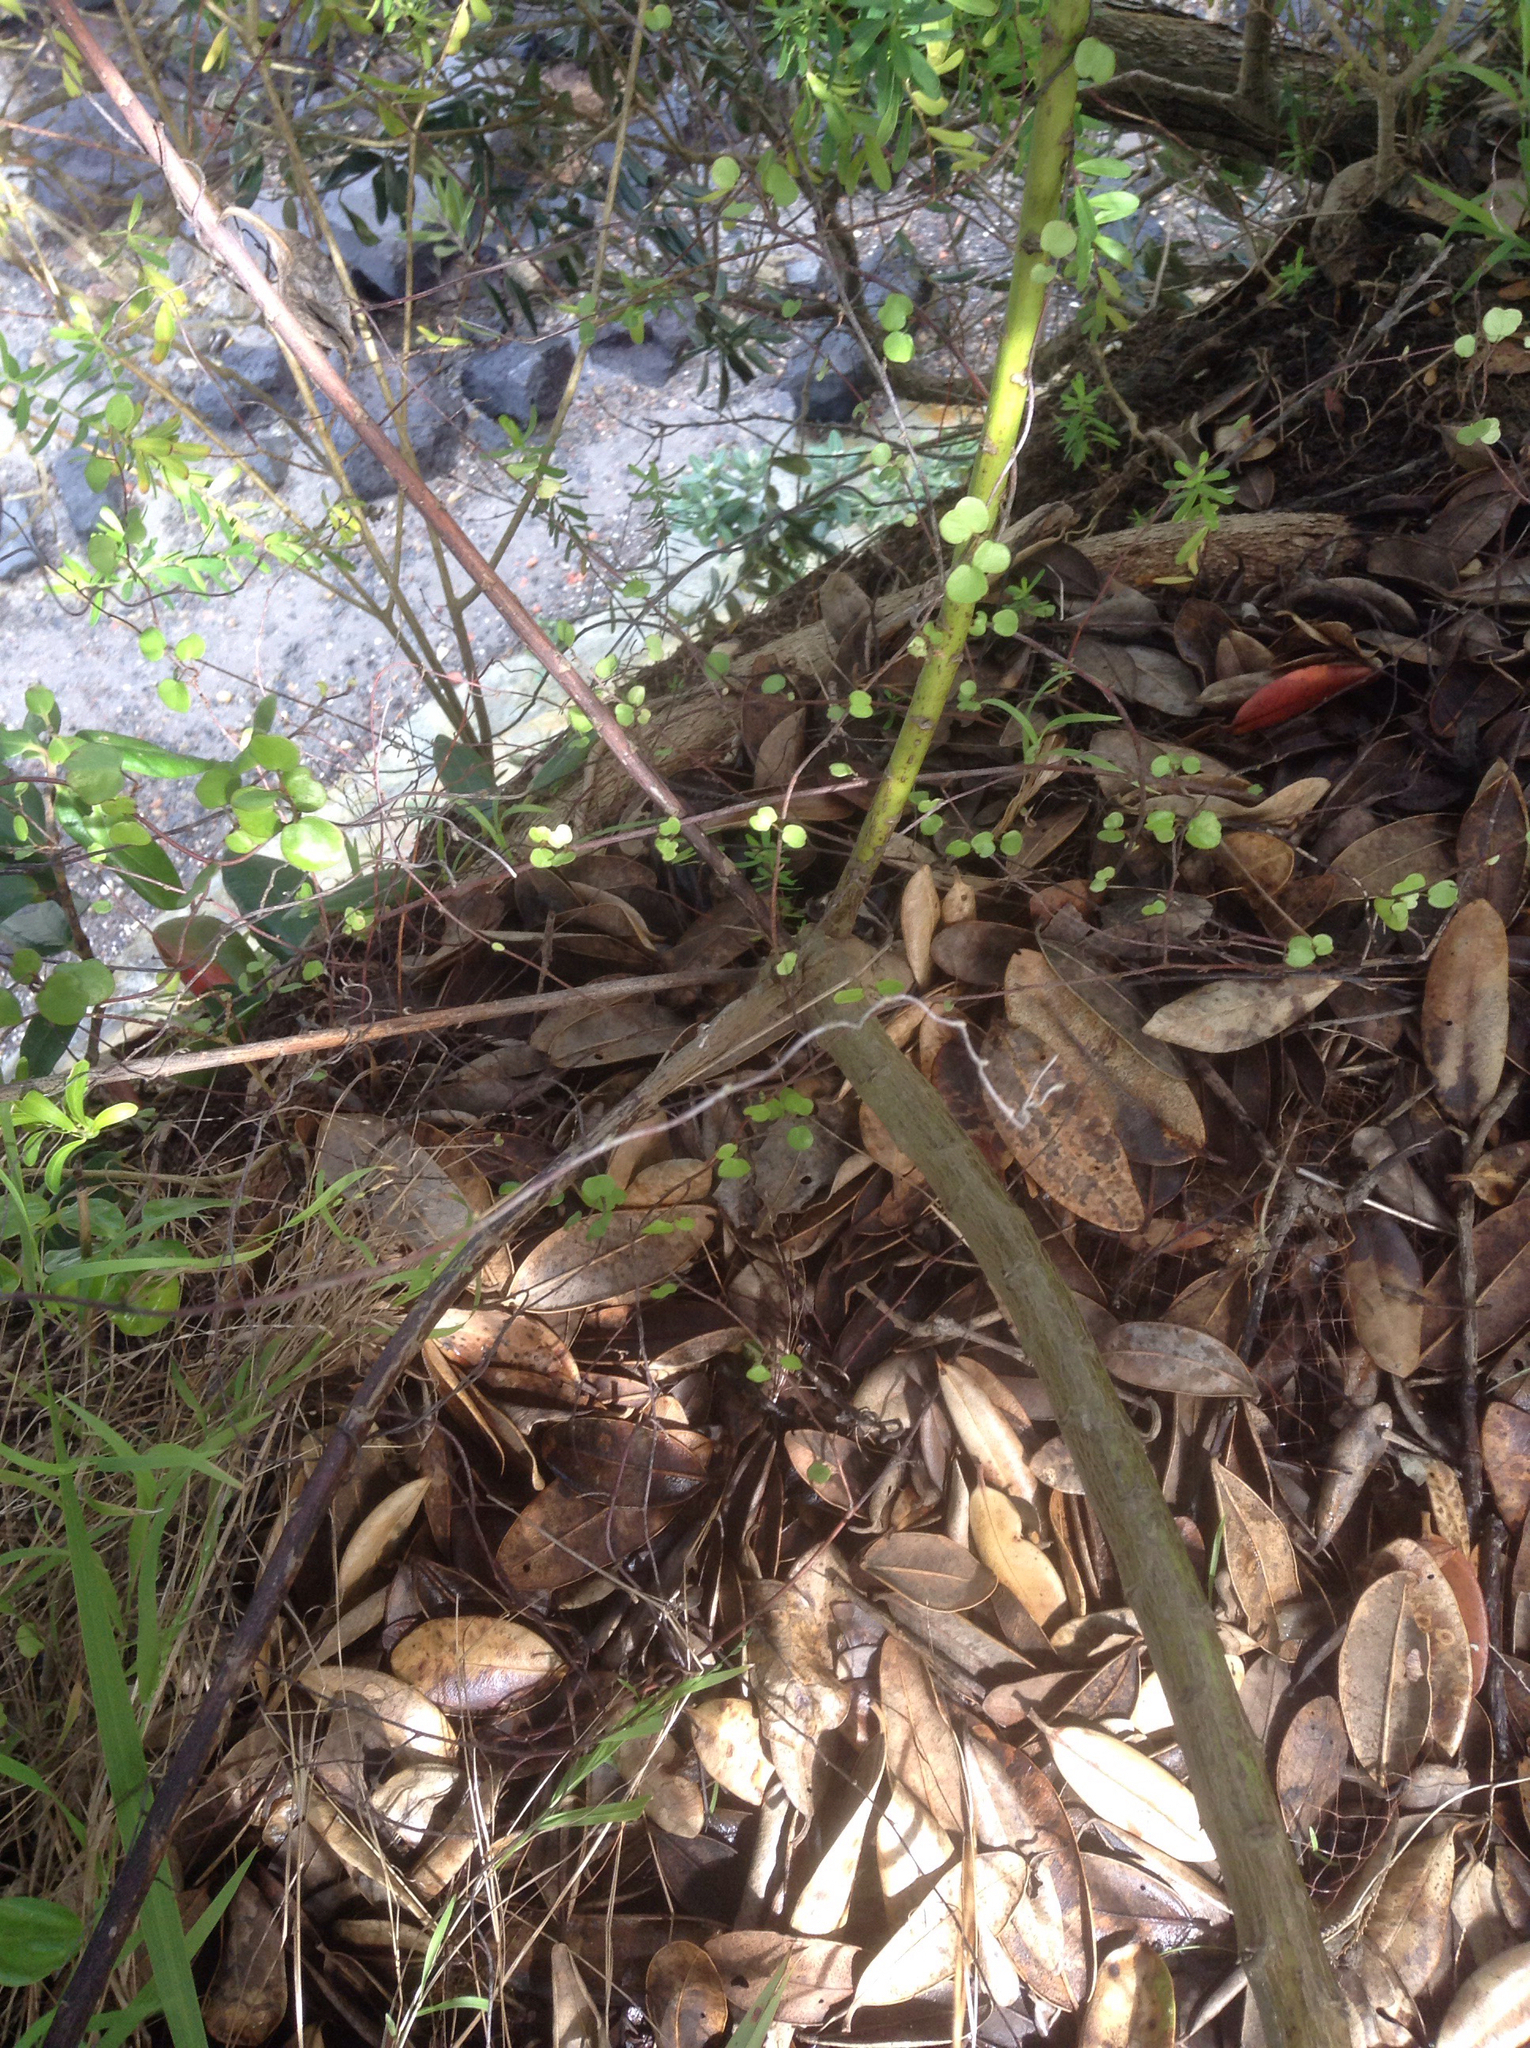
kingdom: Plantae
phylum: Tracheophyta
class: Magnoliopsida
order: Asterales
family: Asteraceae
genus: Osteospermum
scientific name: Osteospermum moniliferum
